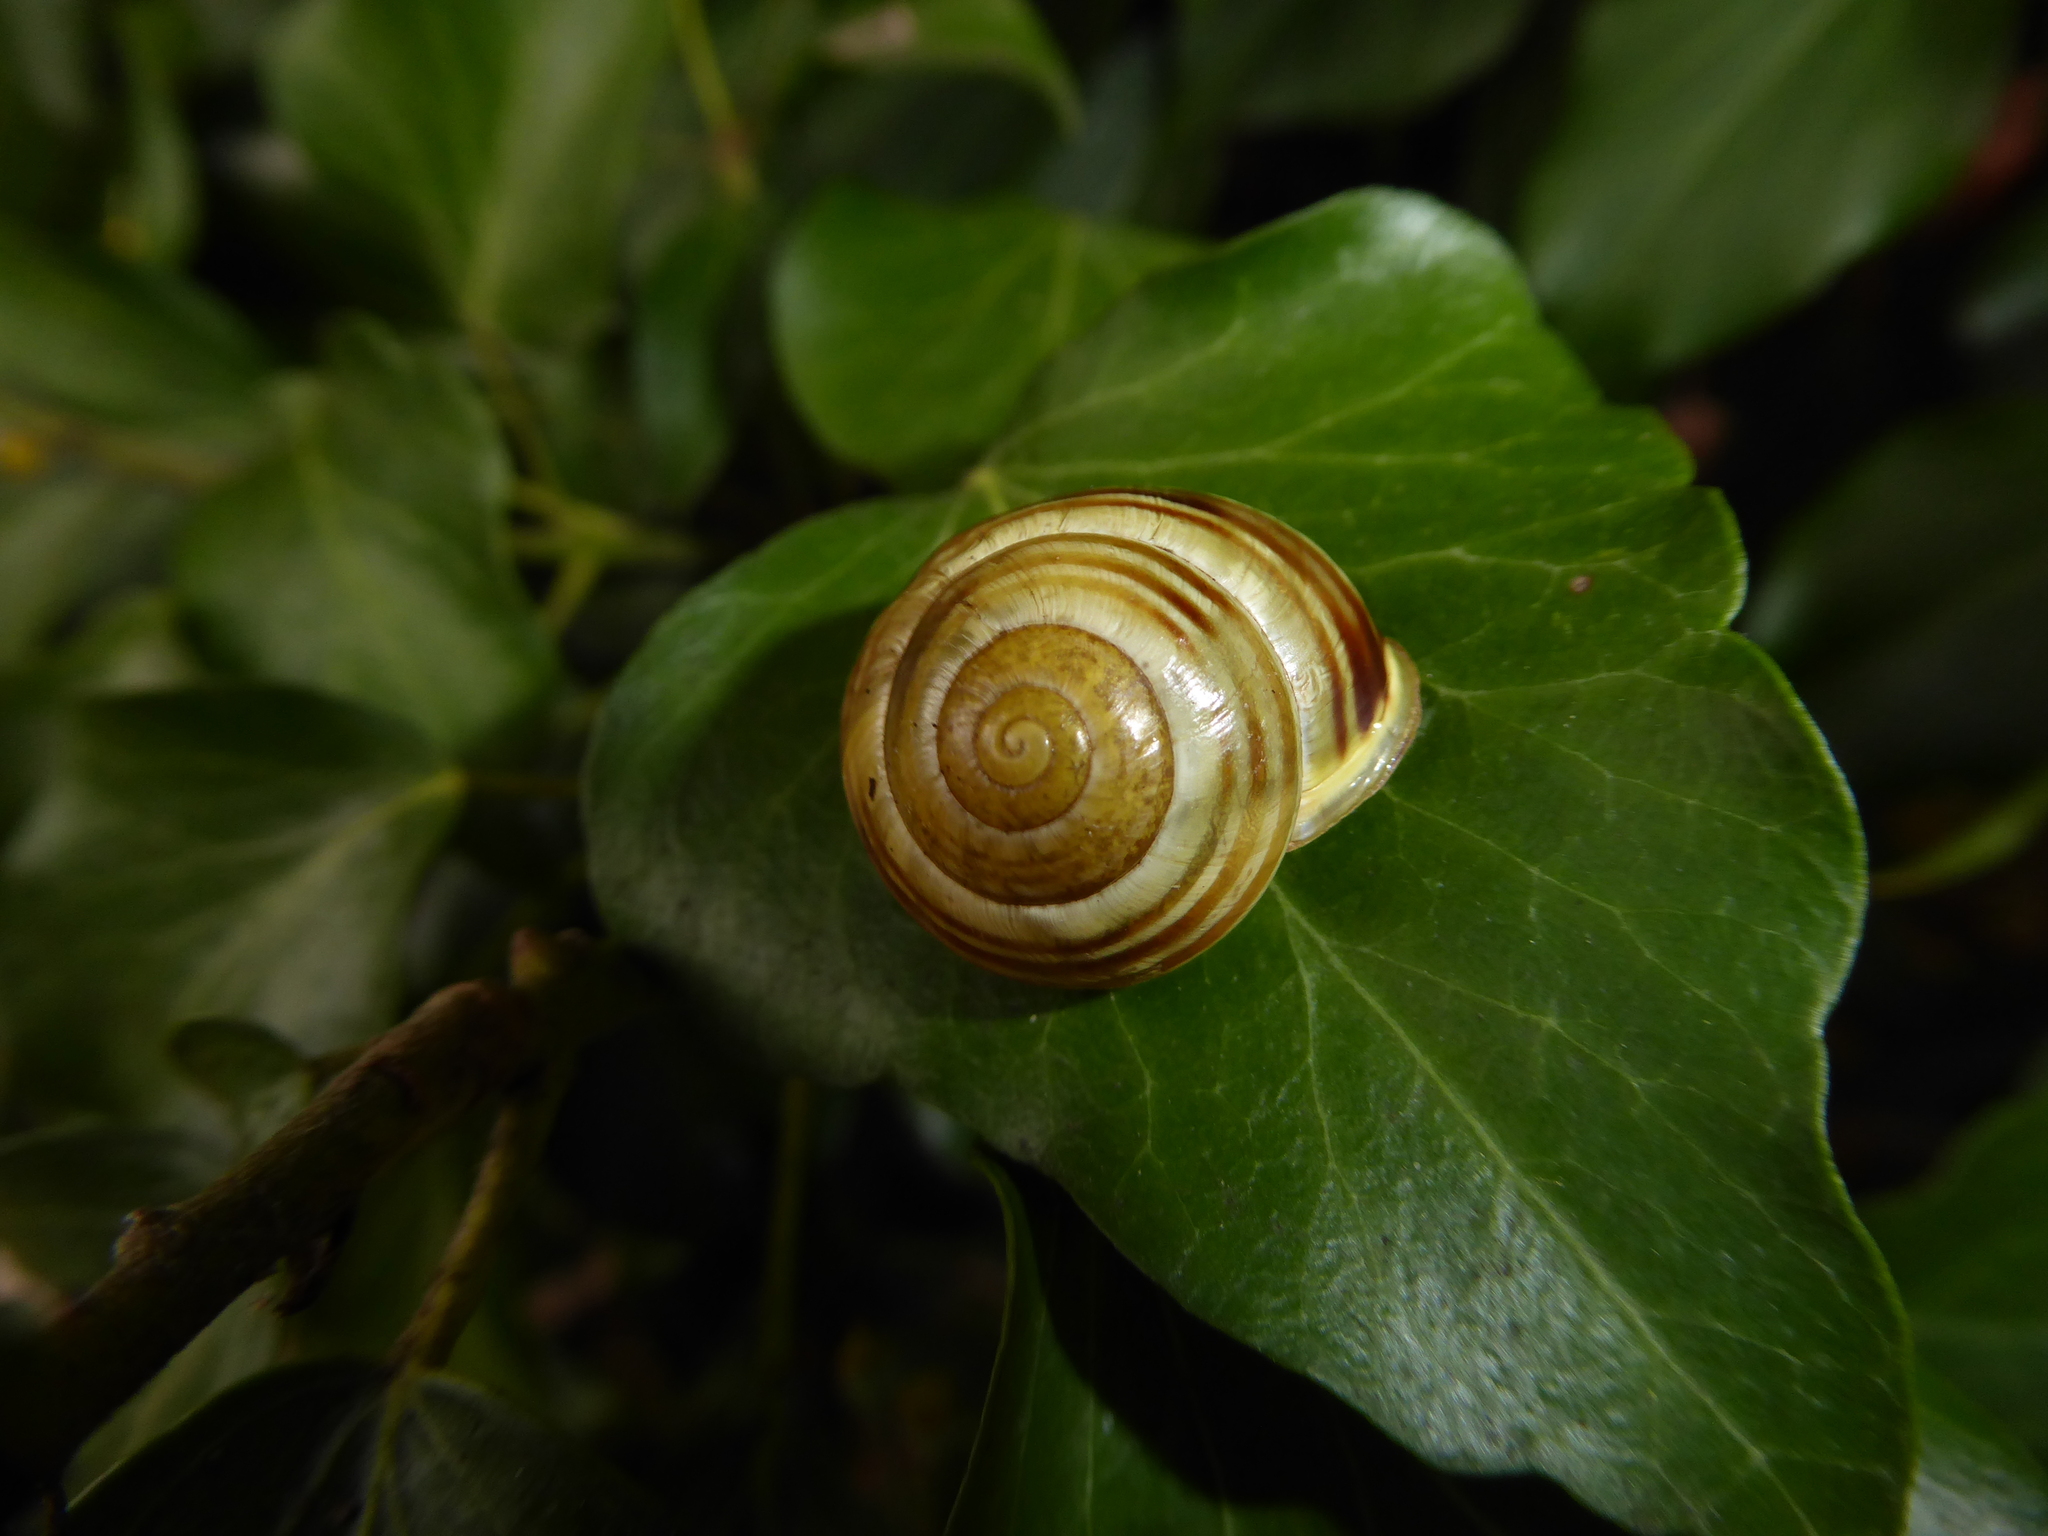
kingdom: Animalia
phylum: Mollusca
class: Gastropoda
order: Stylommatophora
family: Helicidae
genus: Cepaea
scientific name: Cepaea hortensis
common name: White-lip gardensnail
